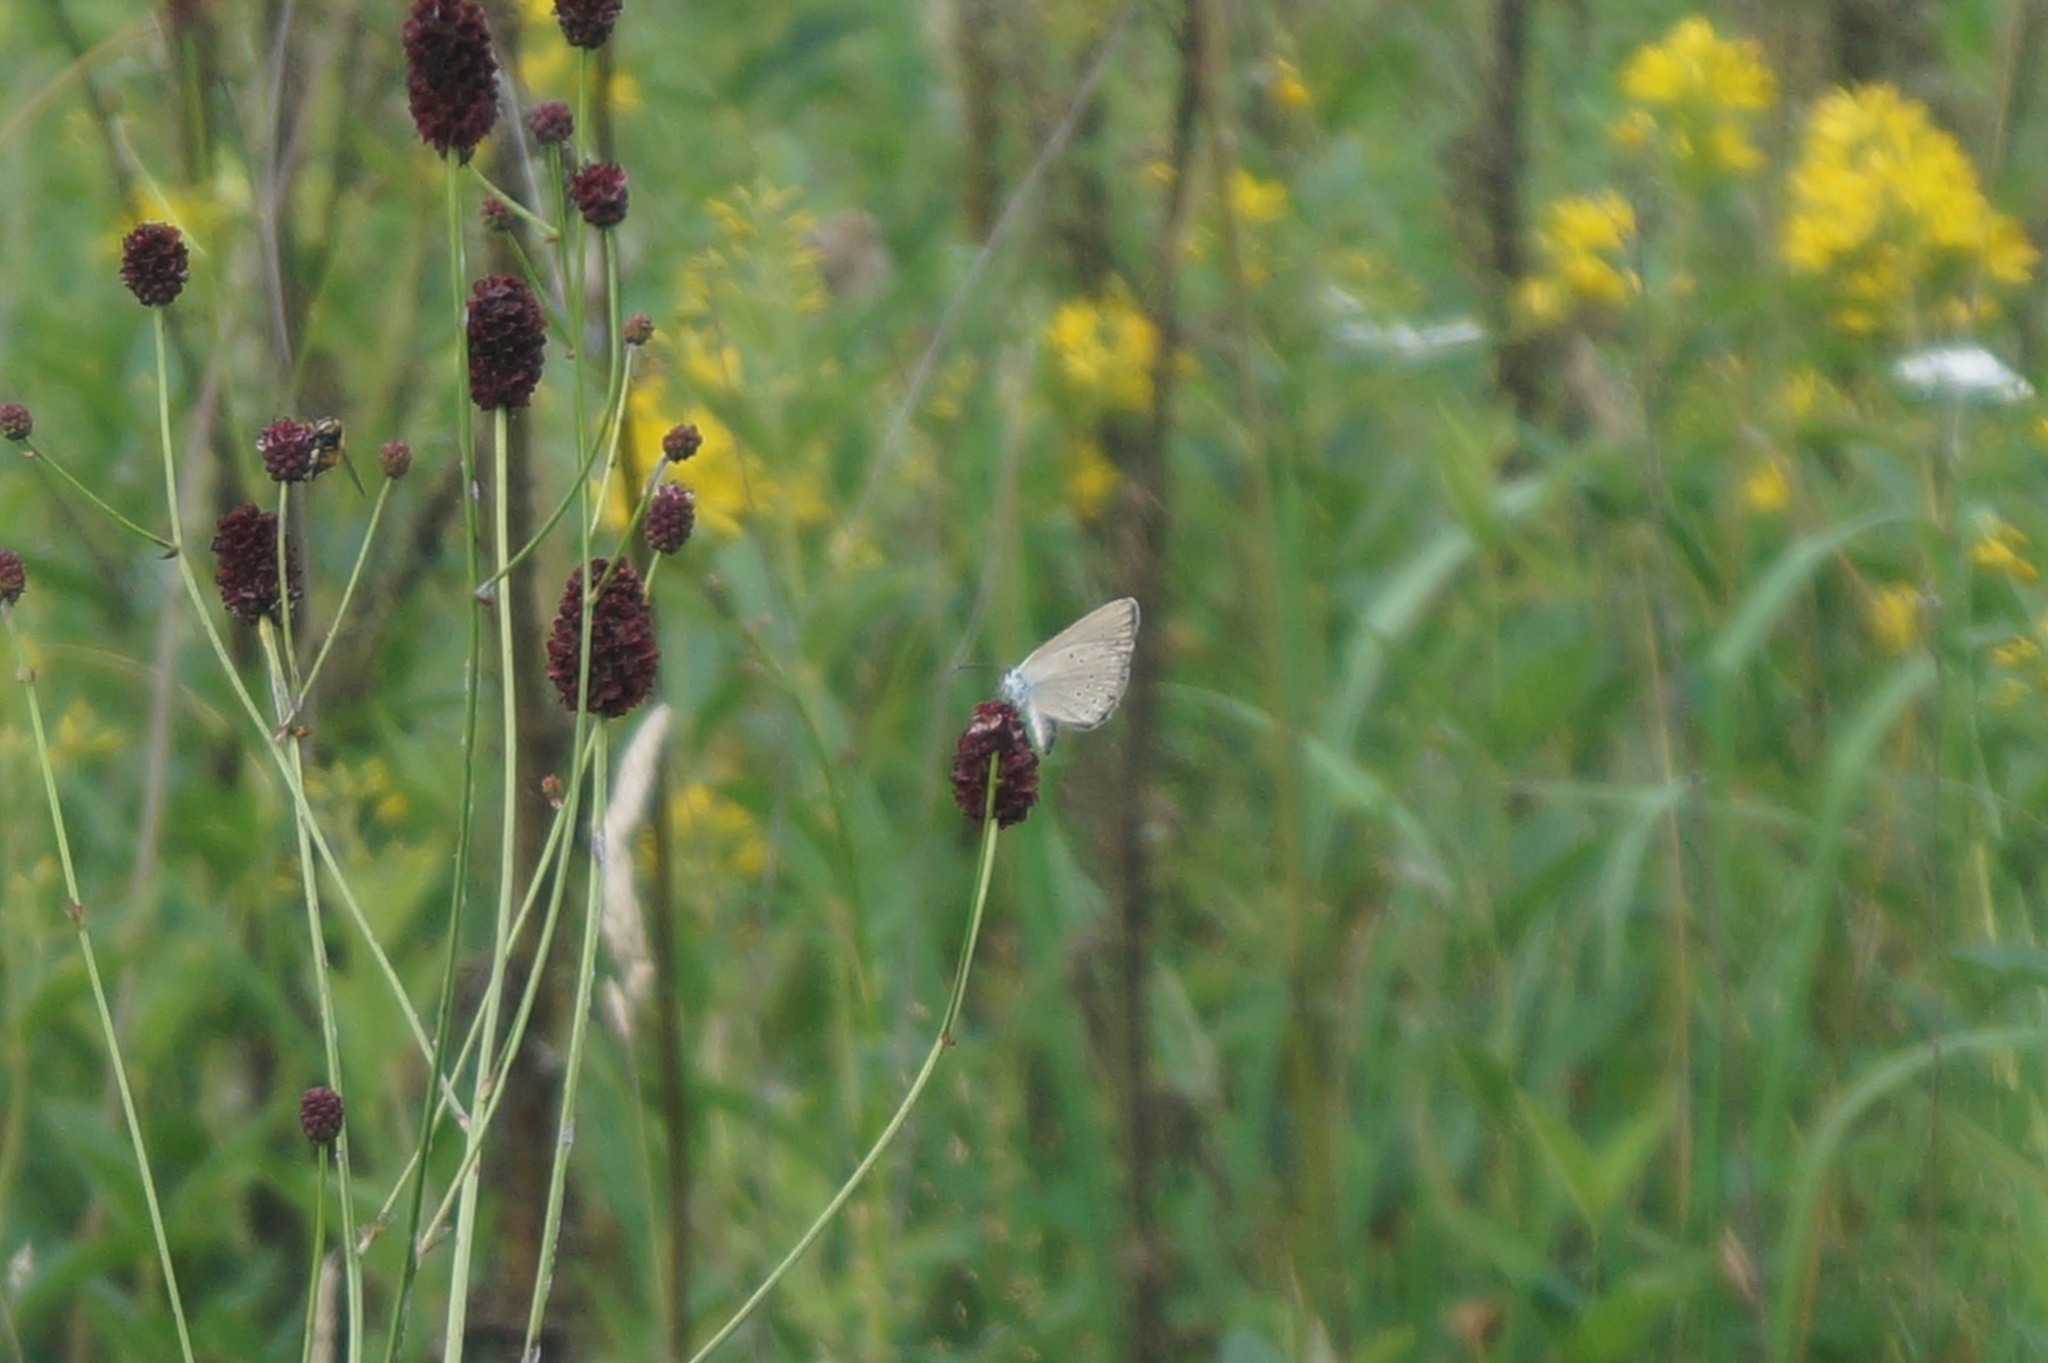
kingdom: Animalia
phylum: Arthropoda
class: Insecta
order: Lepidoptera
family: Lycaenidae
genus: Phengaris
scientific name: Phengaris teleius
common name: Scarce large blue
